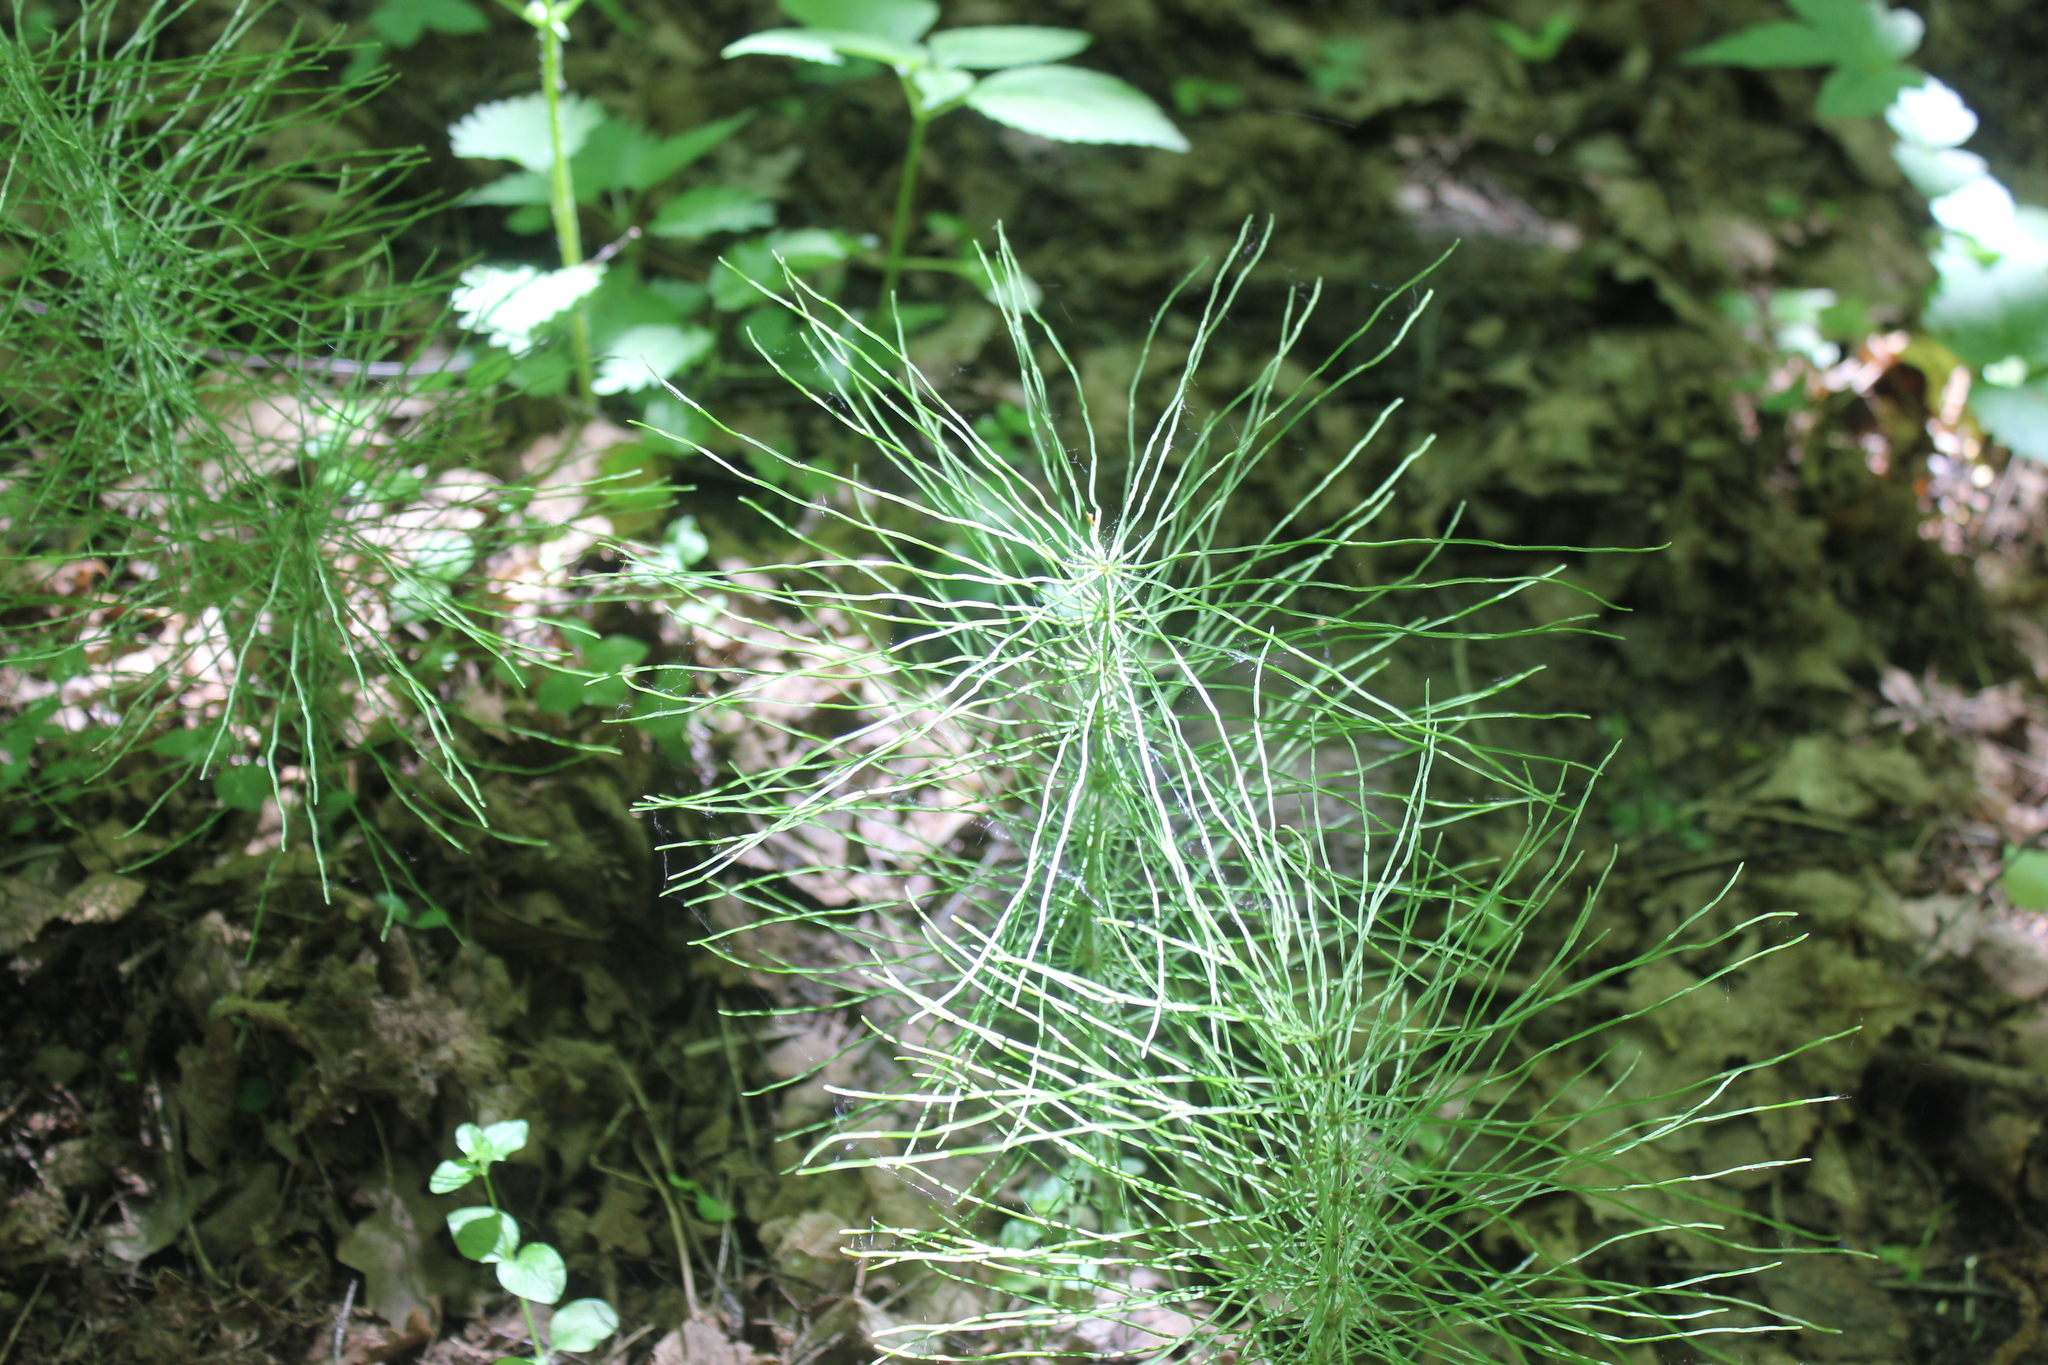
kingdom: Plantae
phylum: Tracheophyta
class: Polypodiopsida
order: Equisetales
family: Equisetaceae
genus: Equisetum
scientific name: Equisetum pratense
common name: Meadow horsetail
